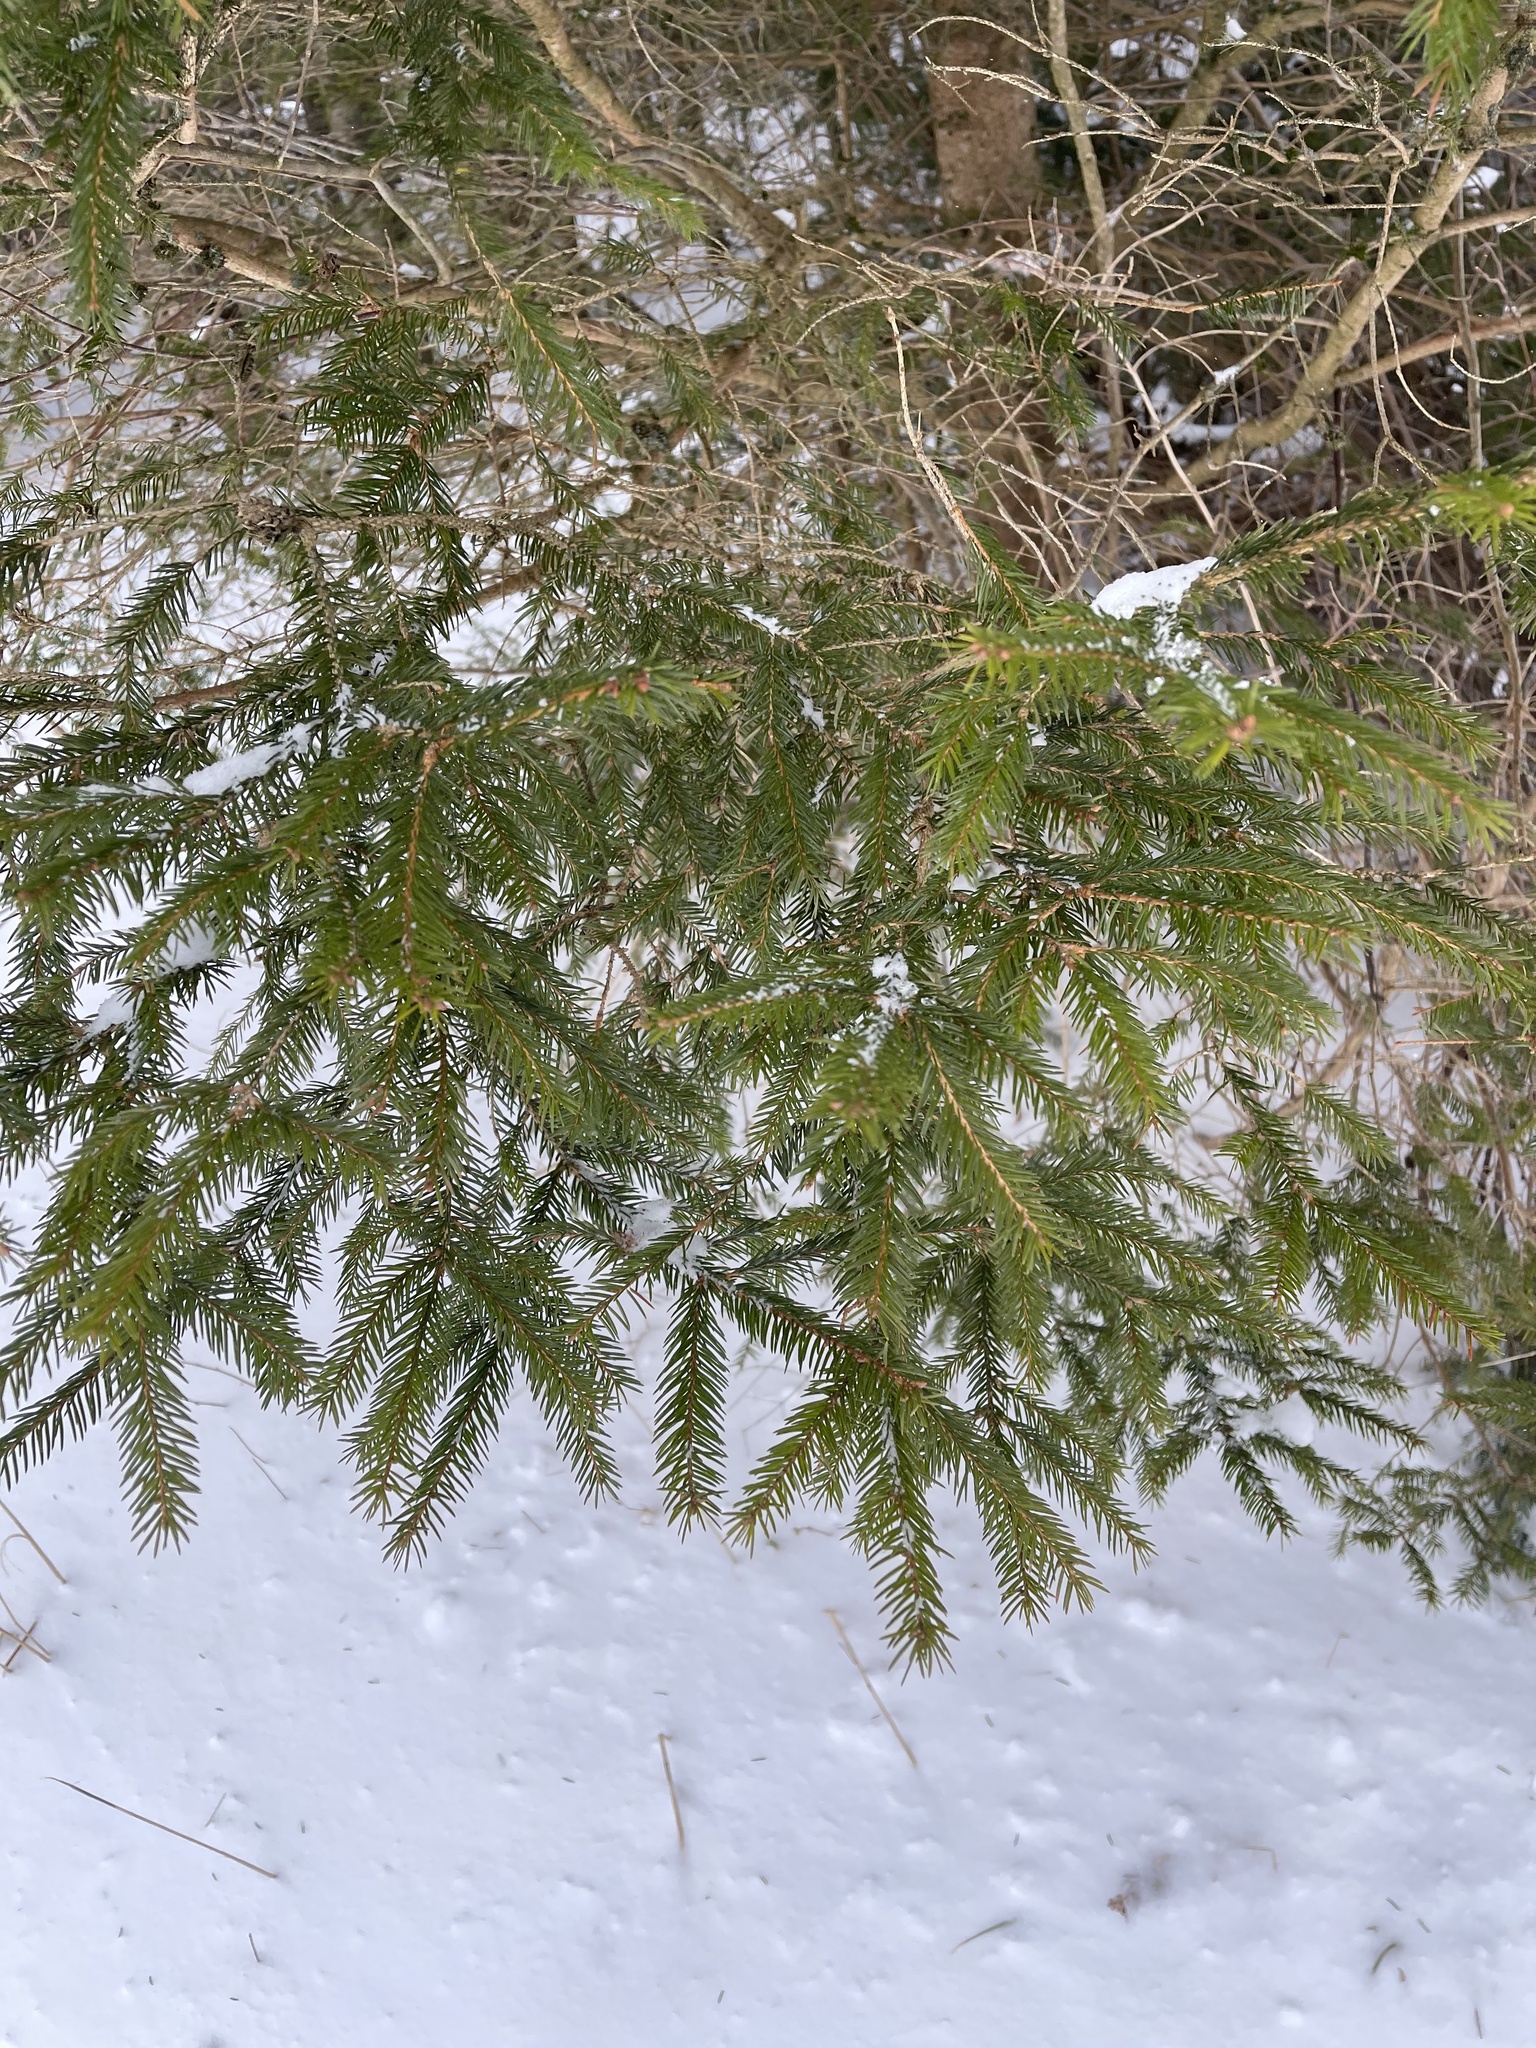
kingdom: Plantae
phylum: Tracheophyta
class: Pinopsida
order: Pinales
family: Pinaceae
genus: Picea
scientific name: Picea abies
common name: Norway spruce
